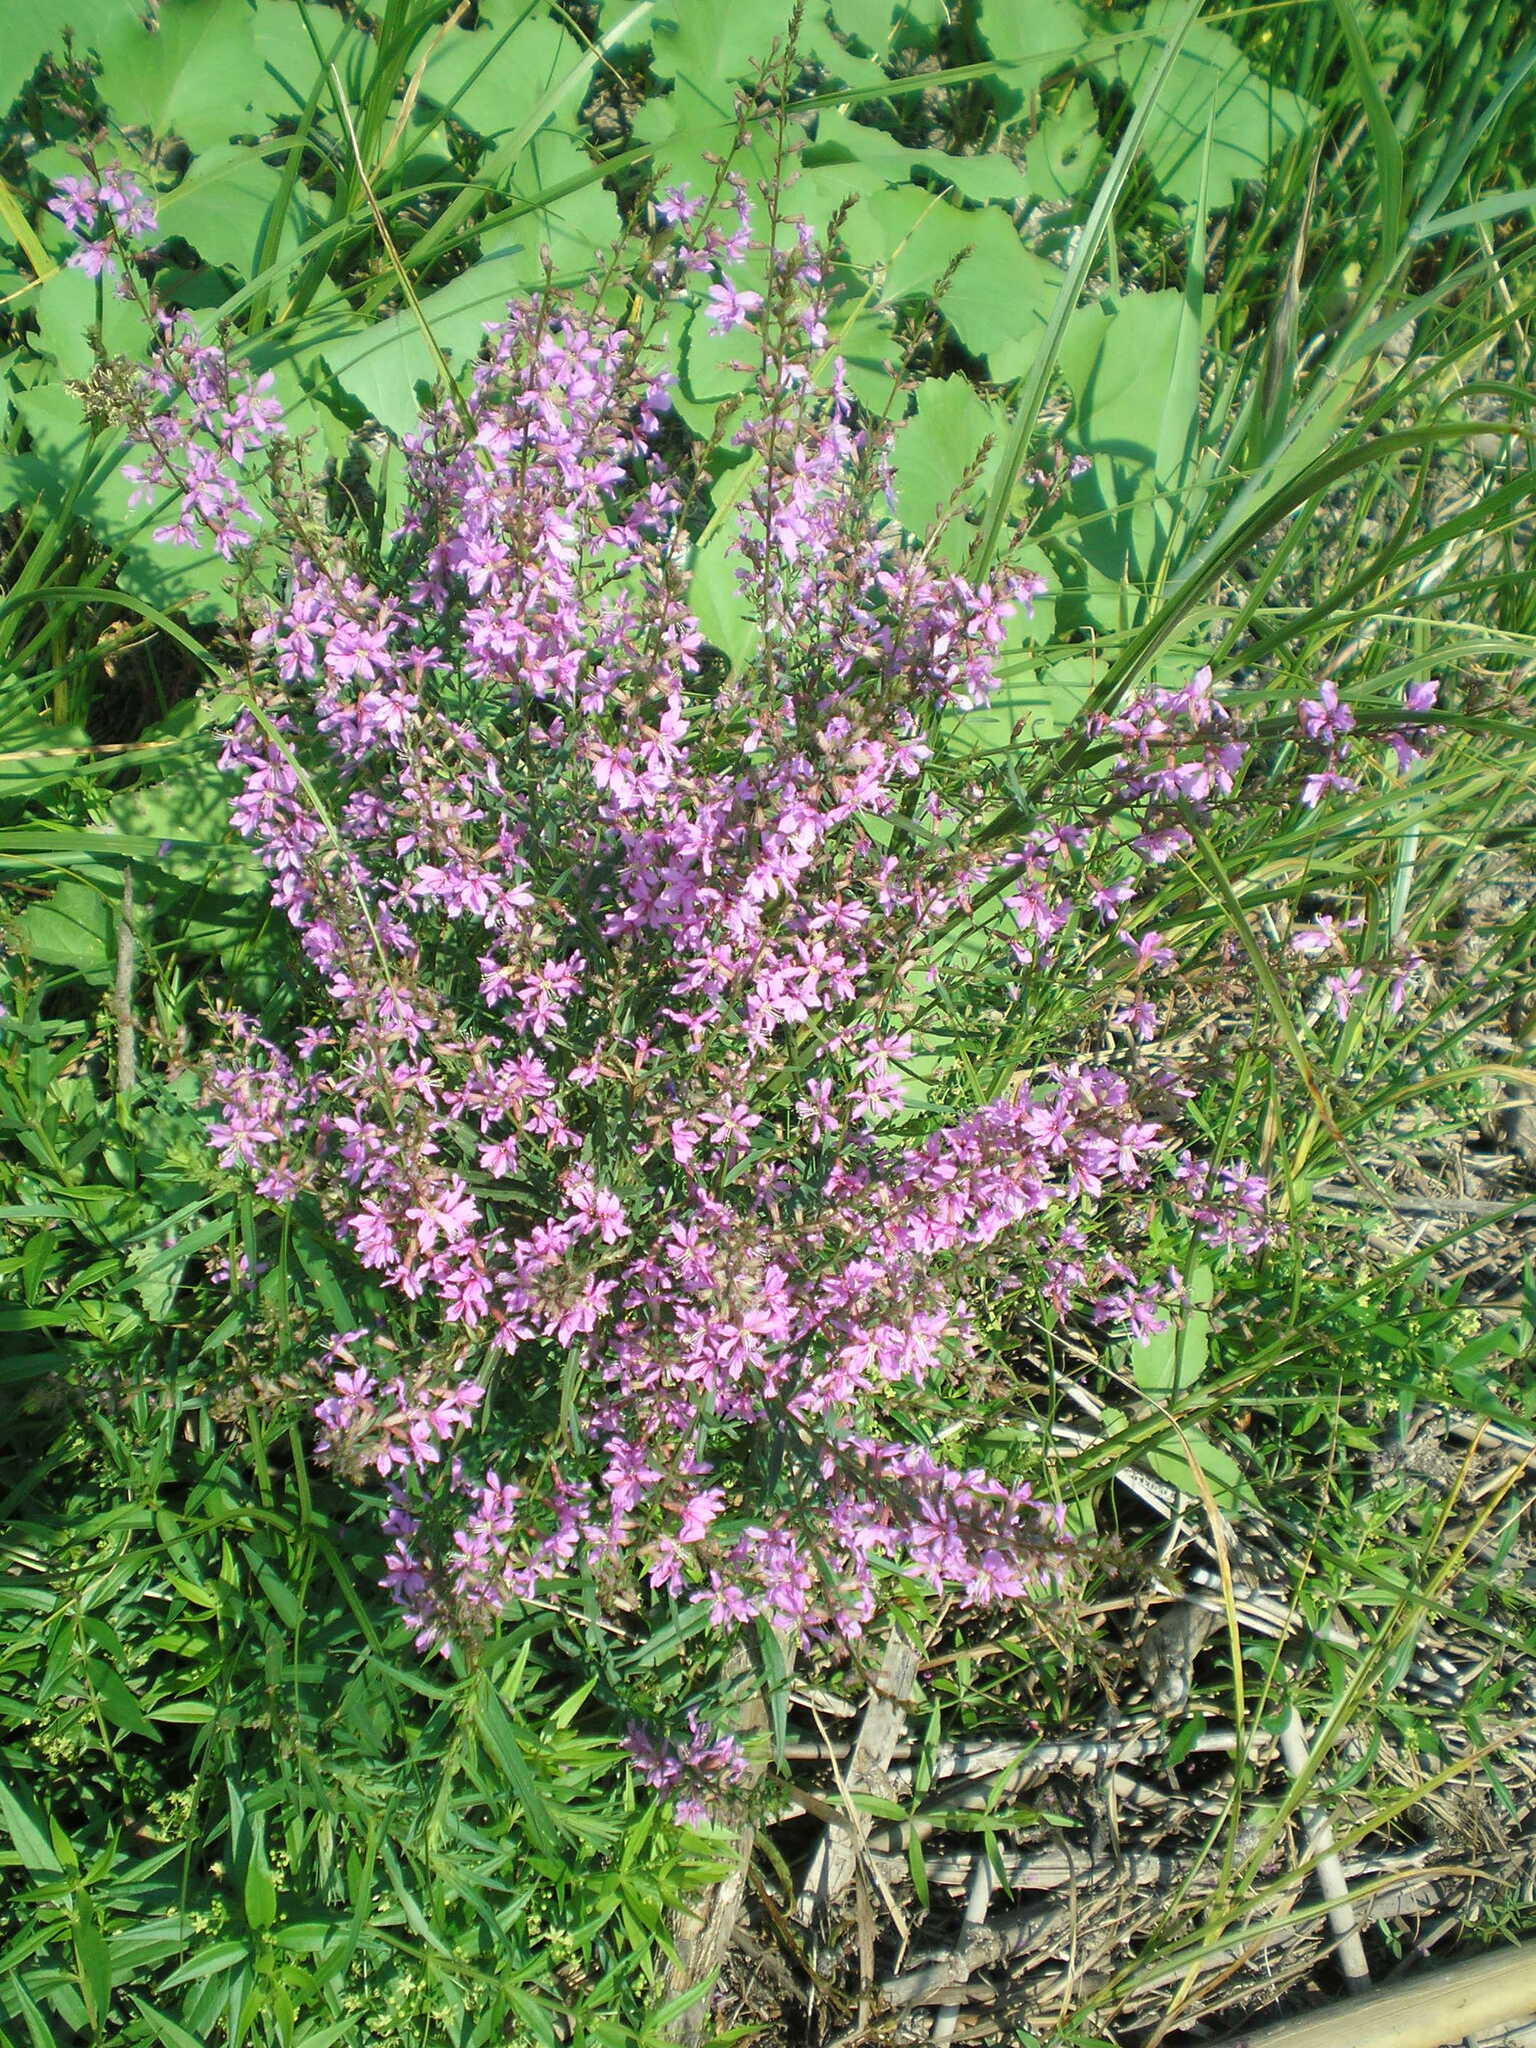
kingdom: Plantae
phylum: Tracheophyta
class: Magnoliopsida
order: Myrtales
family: Lythraceae
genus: Lythrum
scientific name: Lythrum virgatum
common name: European wand loosestrife
